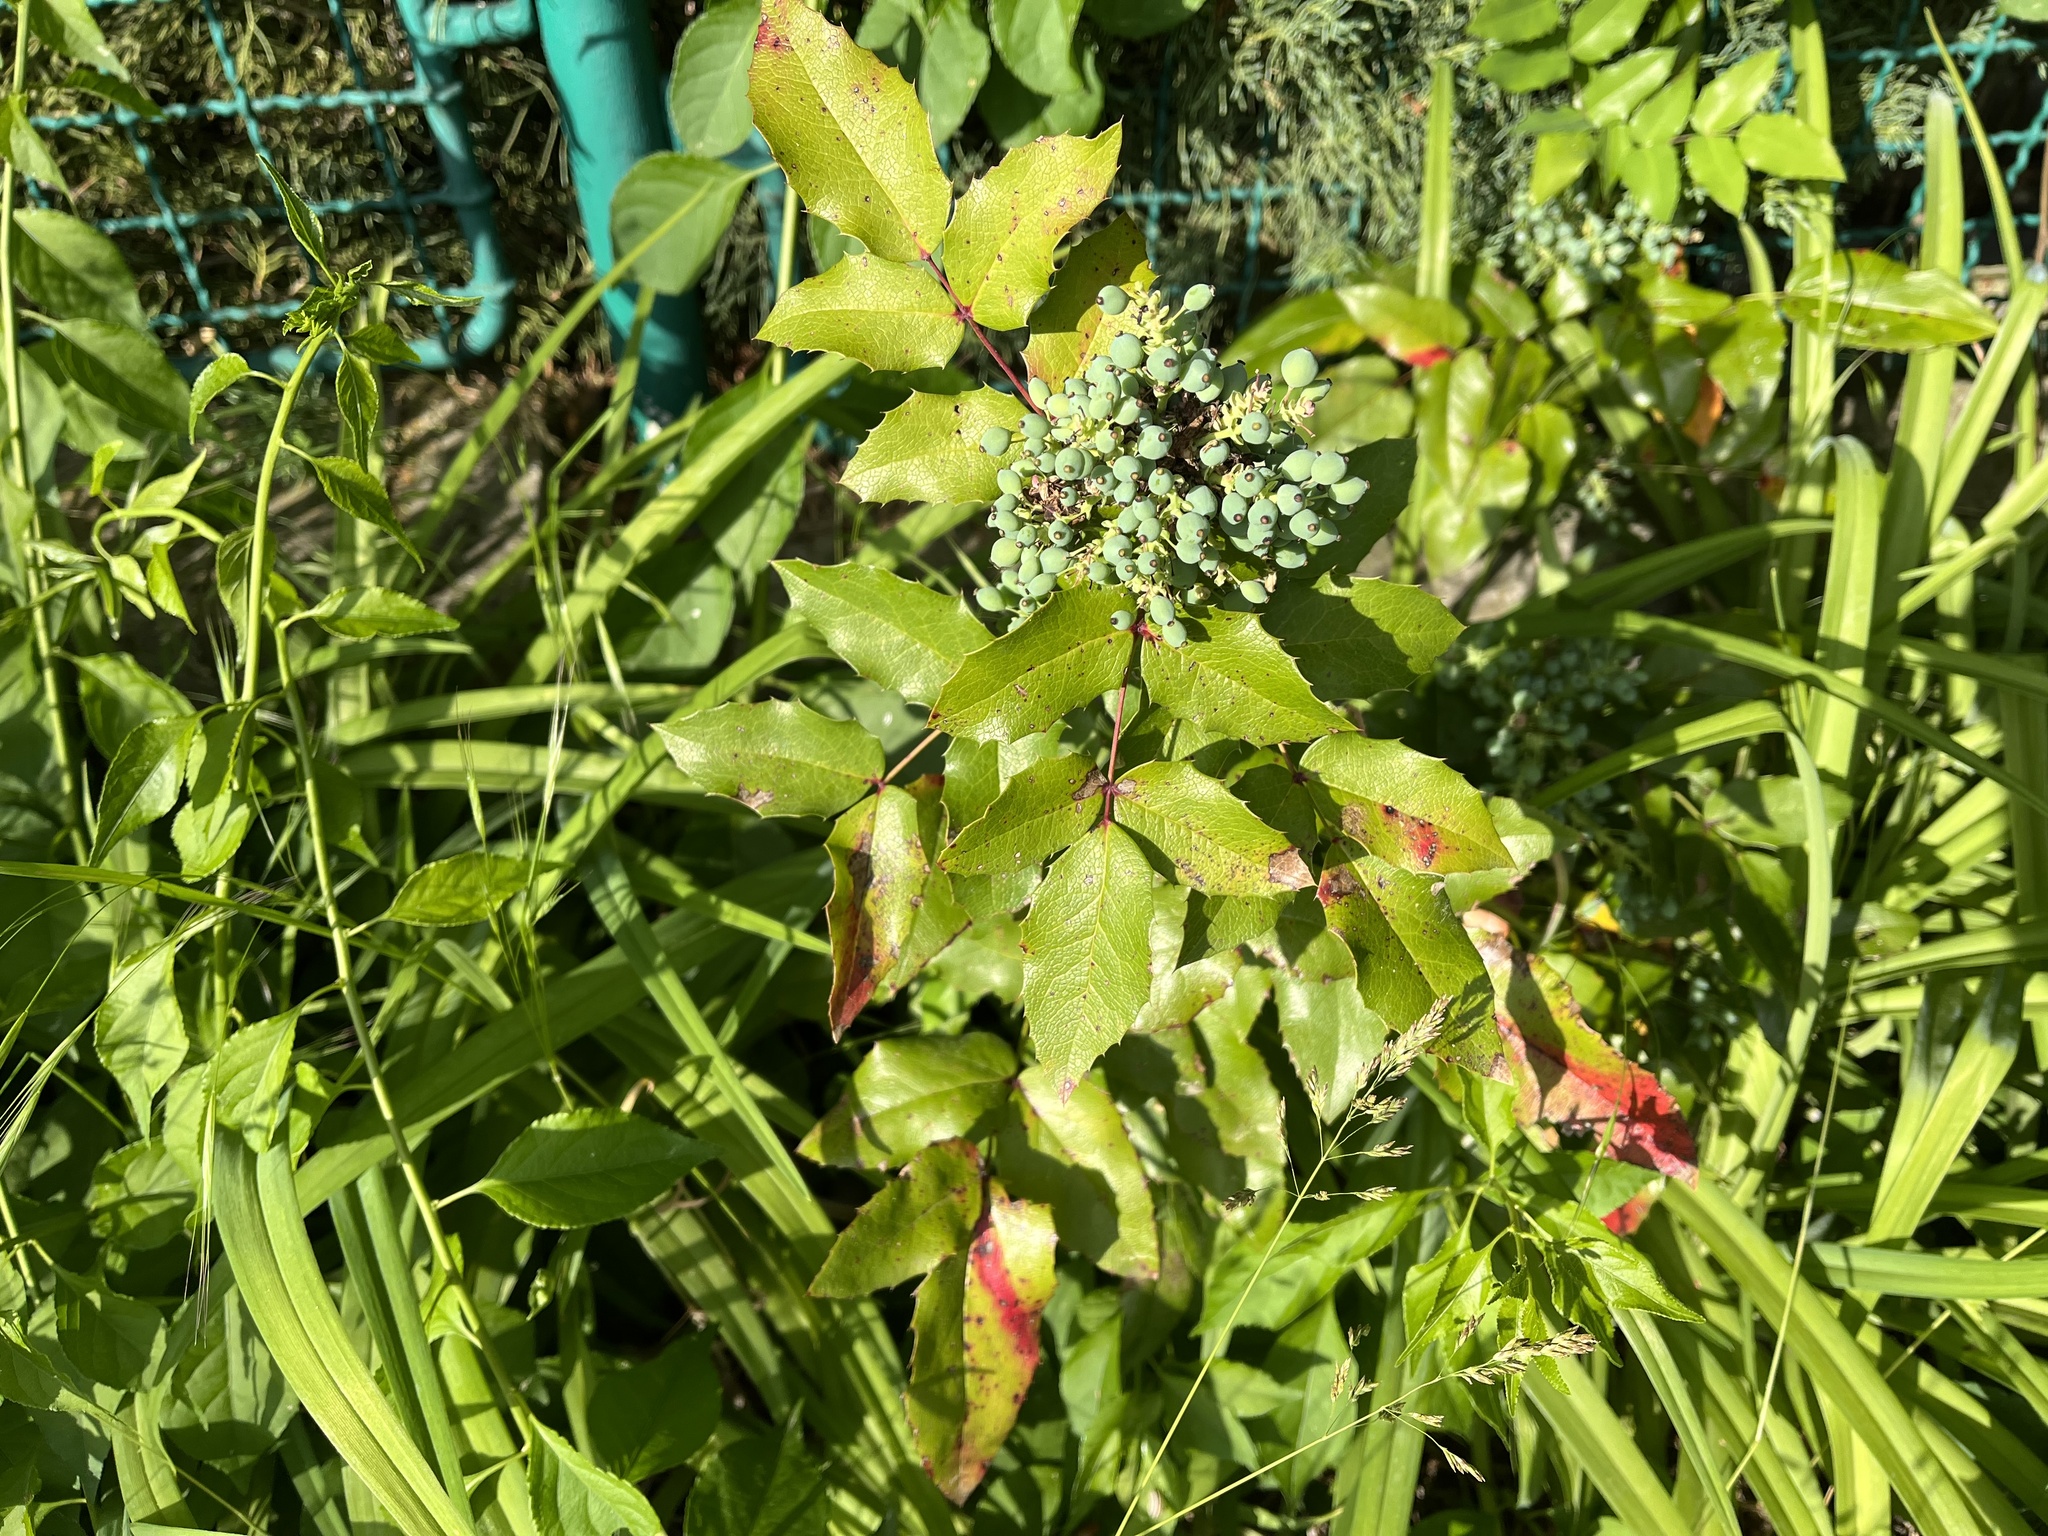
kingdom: Plantae
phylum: Tracheophyta
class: Magnoliopsida
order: Ranunculales
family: Berberidaceae
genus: Mahonia
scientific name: Mahonia aquifolium
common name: Oregon-grape
